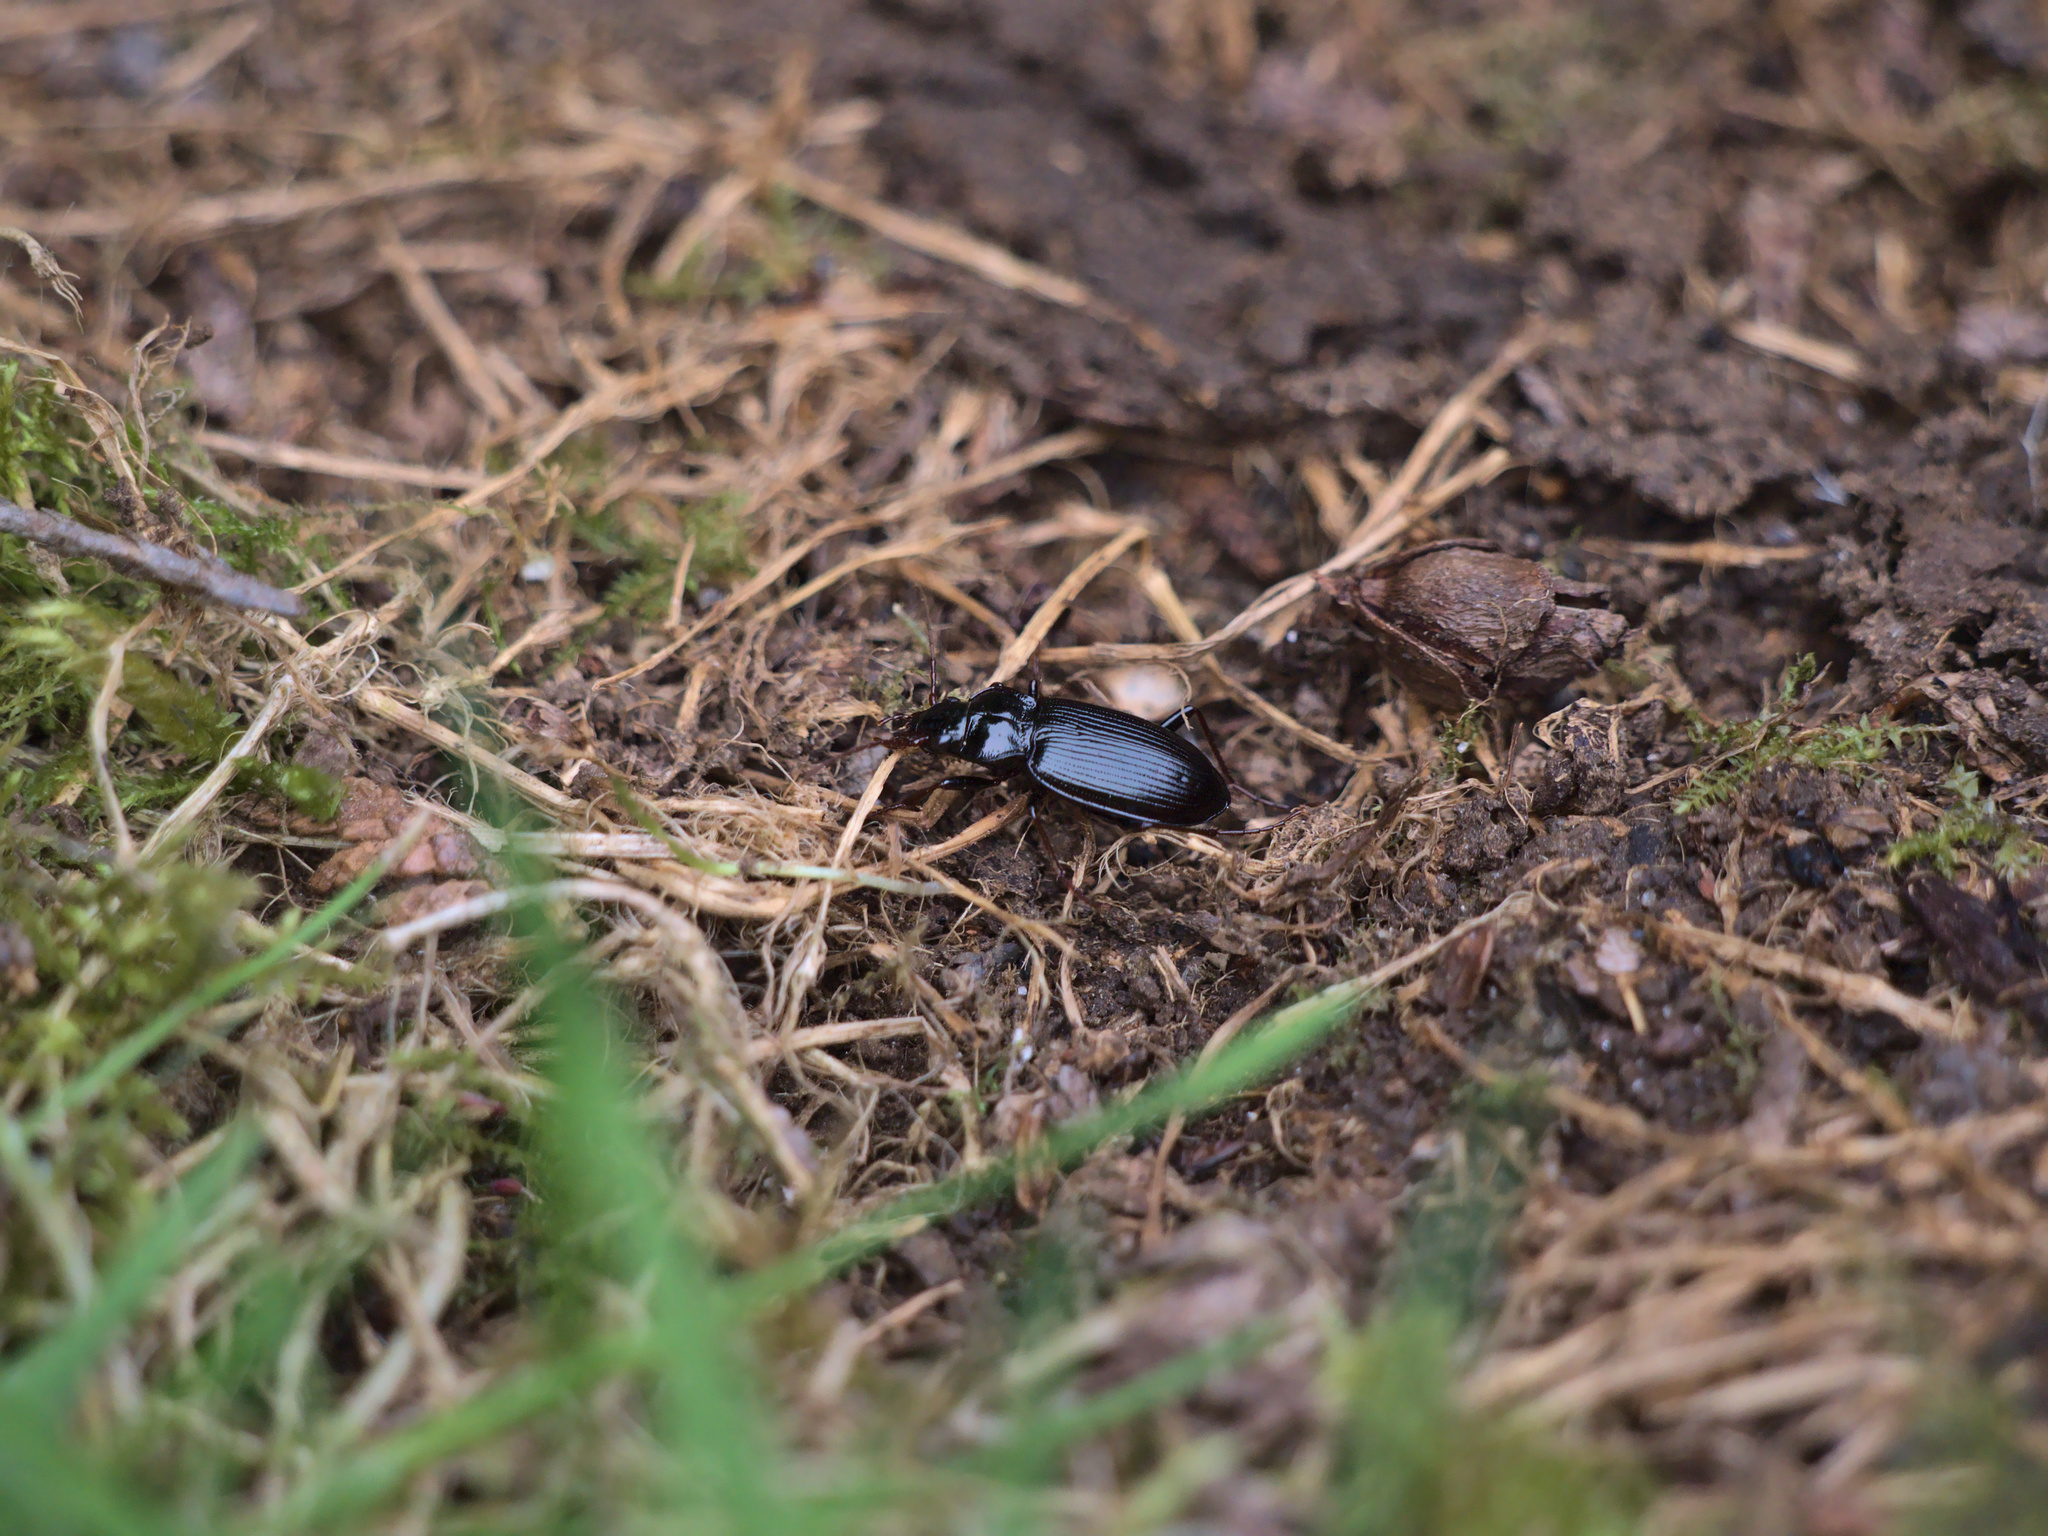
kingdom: Animalia
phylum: Arthropoda
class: Insecta
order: Coleoptera
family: Carabidae
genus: Nebria
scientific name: Nebria brevicollis
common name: Short-necked gazelle beetle
